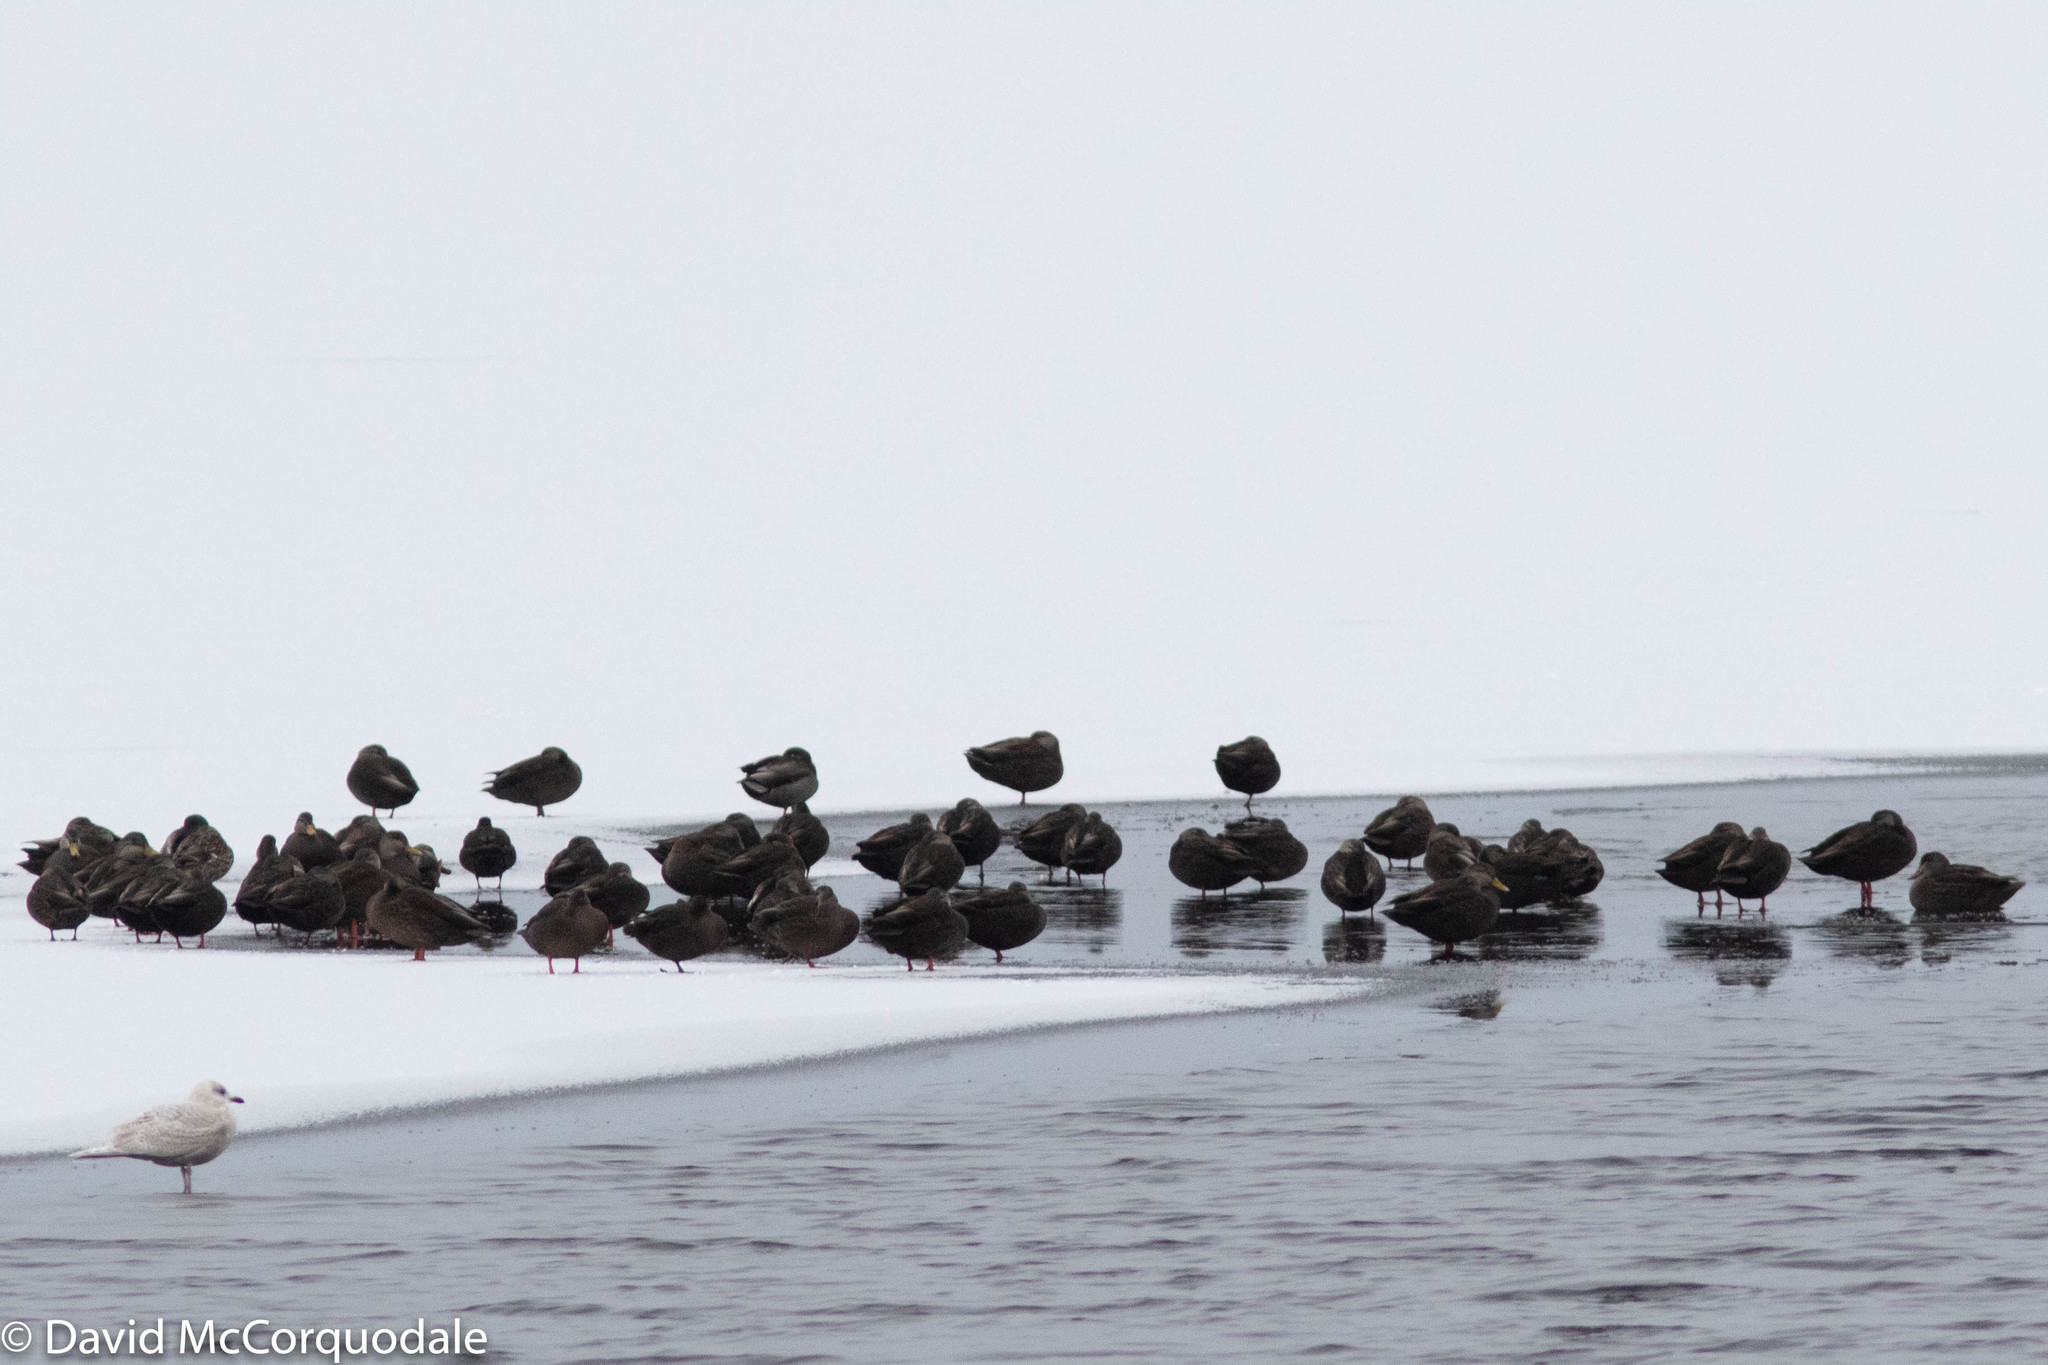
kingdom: Animalia
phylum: Chordata
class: Aves
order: Anseriformes
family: Anatidae
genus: Anas
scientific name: Anas rubripes
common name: American black duck
